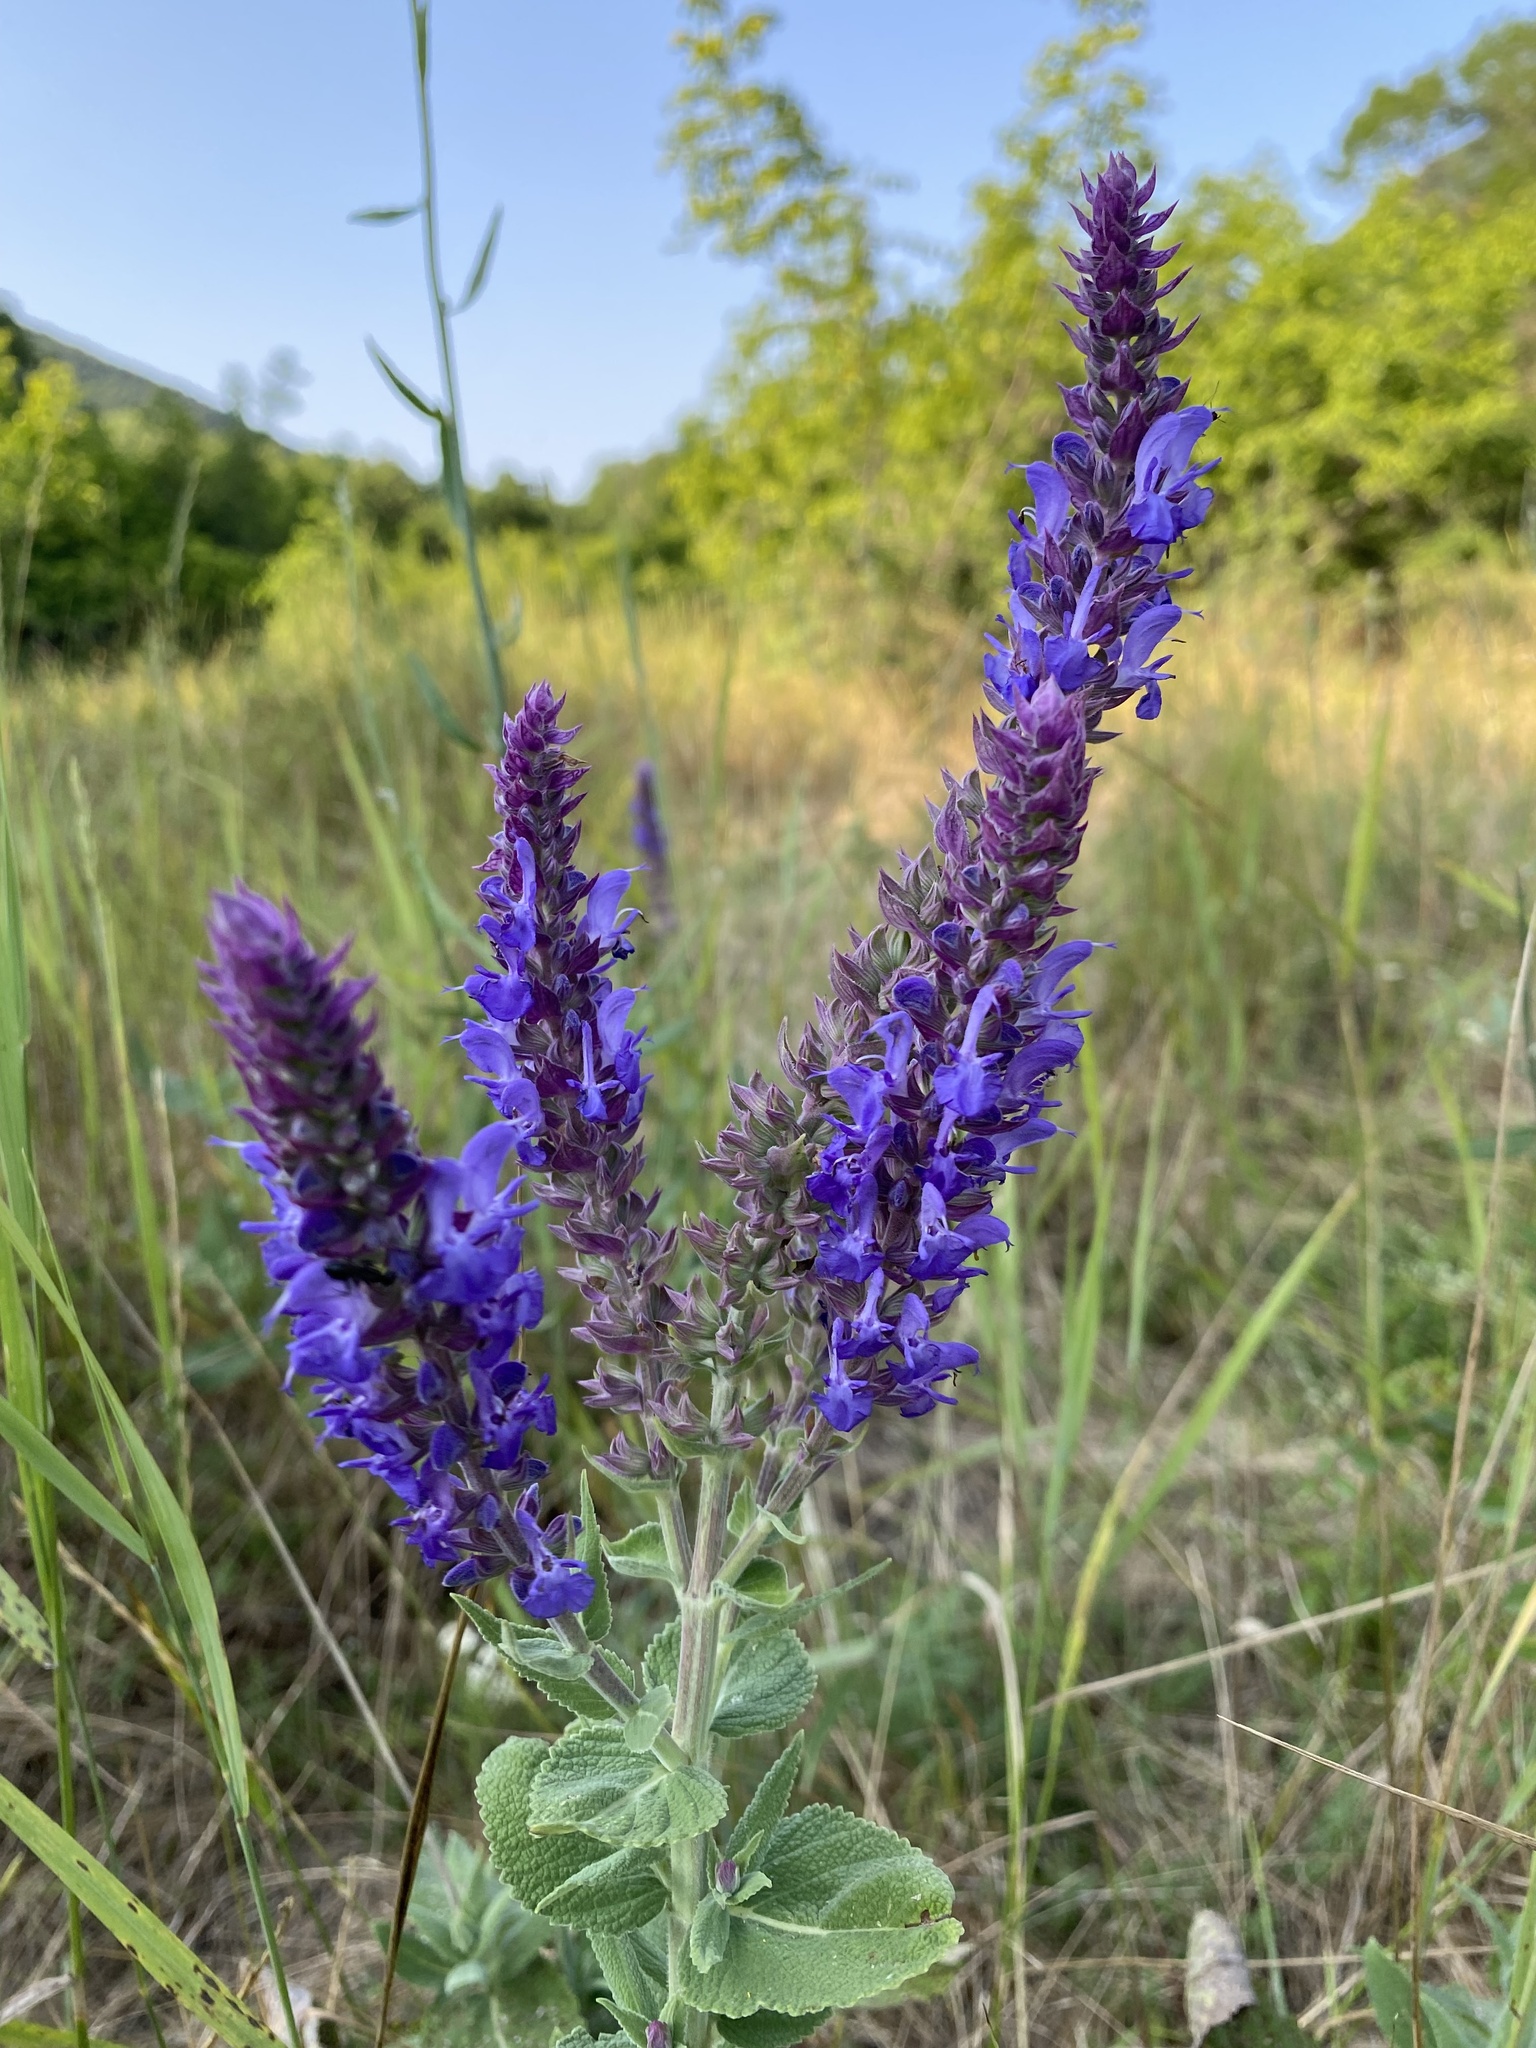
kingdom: Plantae
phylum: Tracheophyta
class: Magnoliopsida
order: Lamiales
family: Lamiaceae
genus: Salvia
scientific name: Salvia nemorosa
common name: Balkan clary
